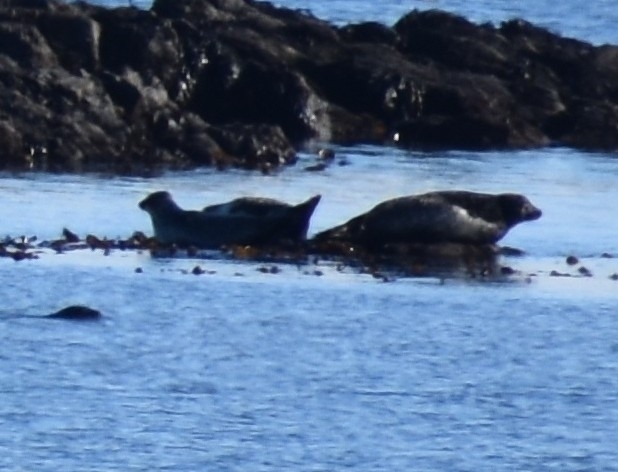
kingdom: Animalia
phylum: Chordata
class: Mammalia
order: Carnivora
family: Phocidae
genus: Phoca
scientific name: Phoca vitulina
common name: Harbor seal
